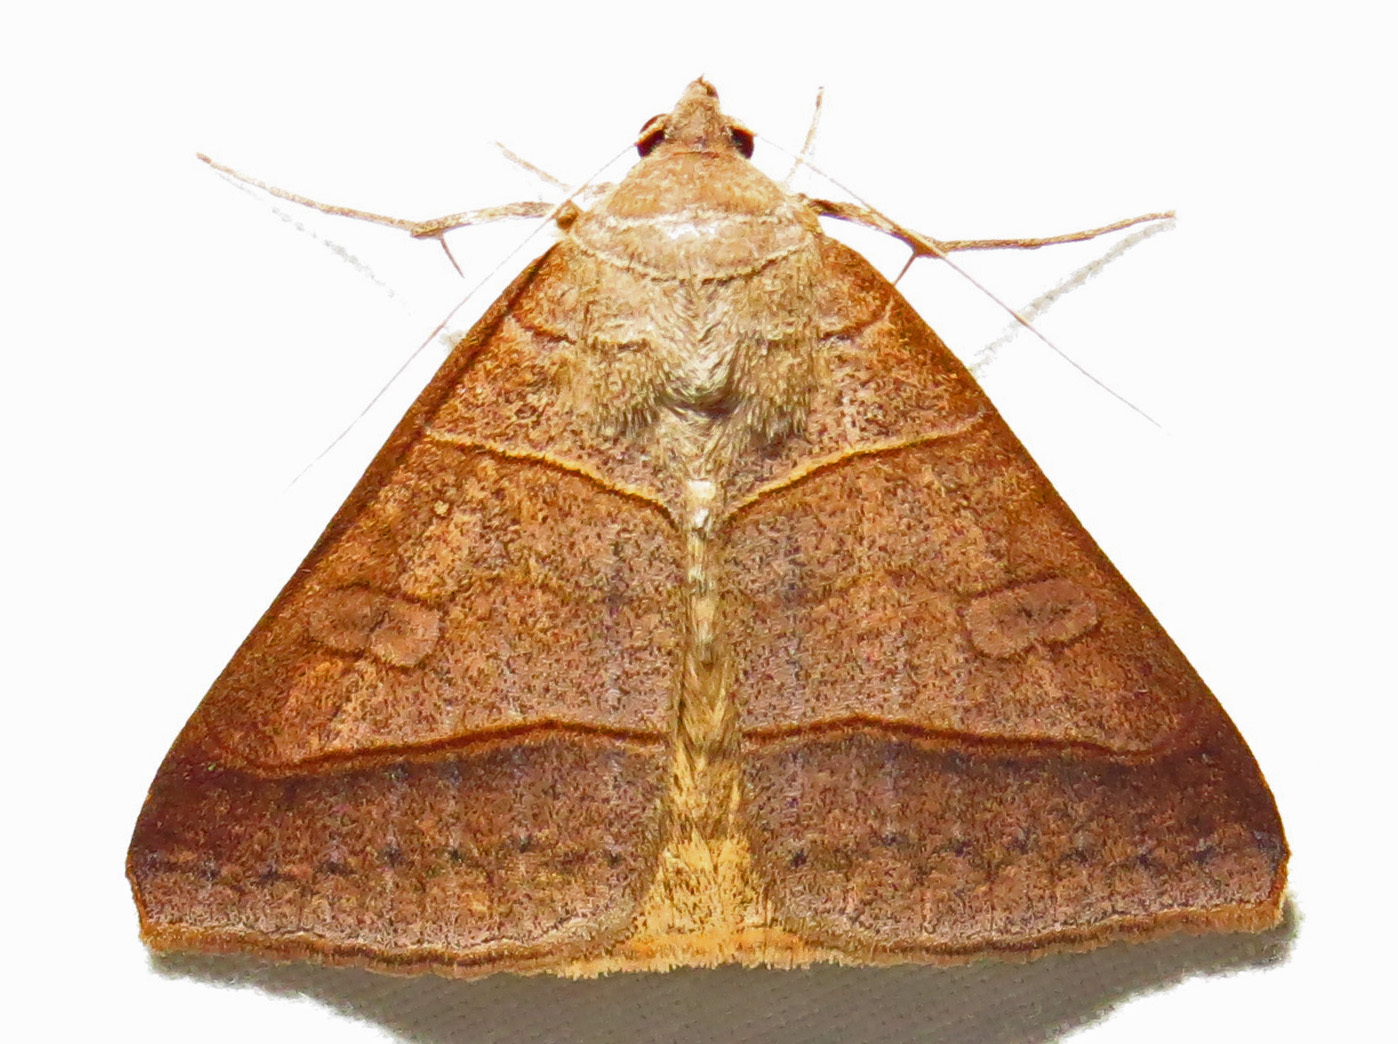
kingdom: Animalia
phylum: Arthropoda
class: Insecta
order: Lepidoptera
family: Erebidae
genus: Mocis
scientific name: Mocis texana
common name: Texas mocis moth
